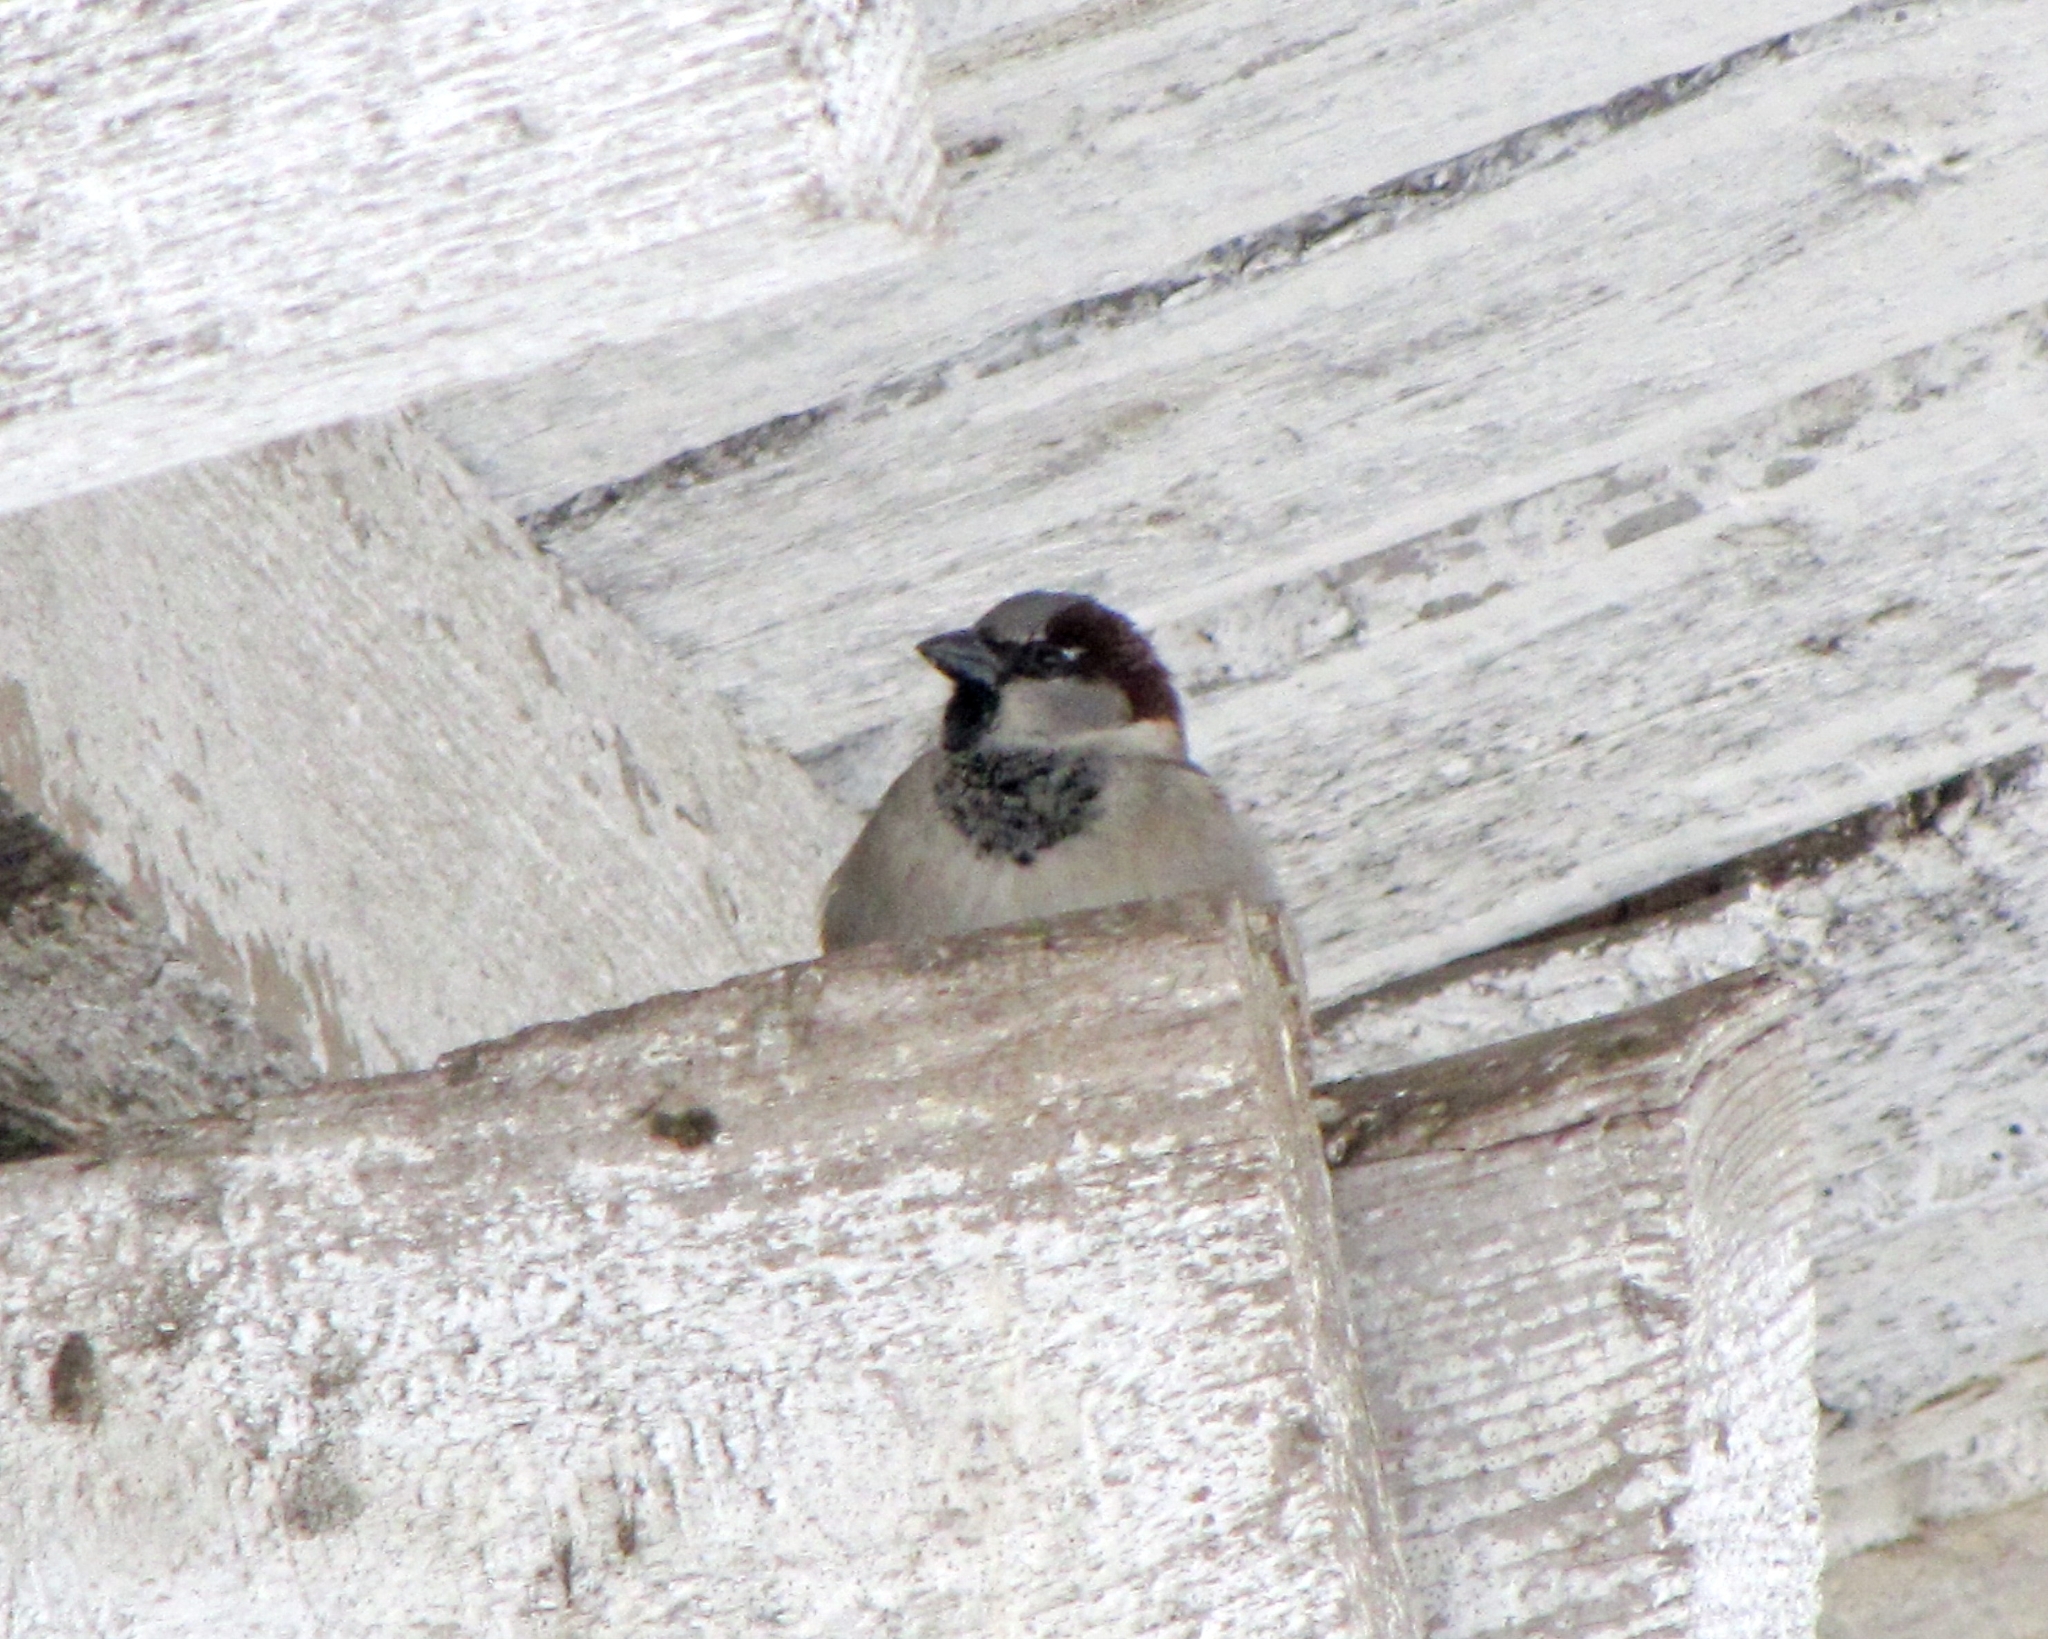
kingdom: Animalia
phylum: Chordata
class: Aves
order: Passeriformes
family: Passeridae
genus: Passer
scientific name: Passer domesticus
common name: House sparrow
